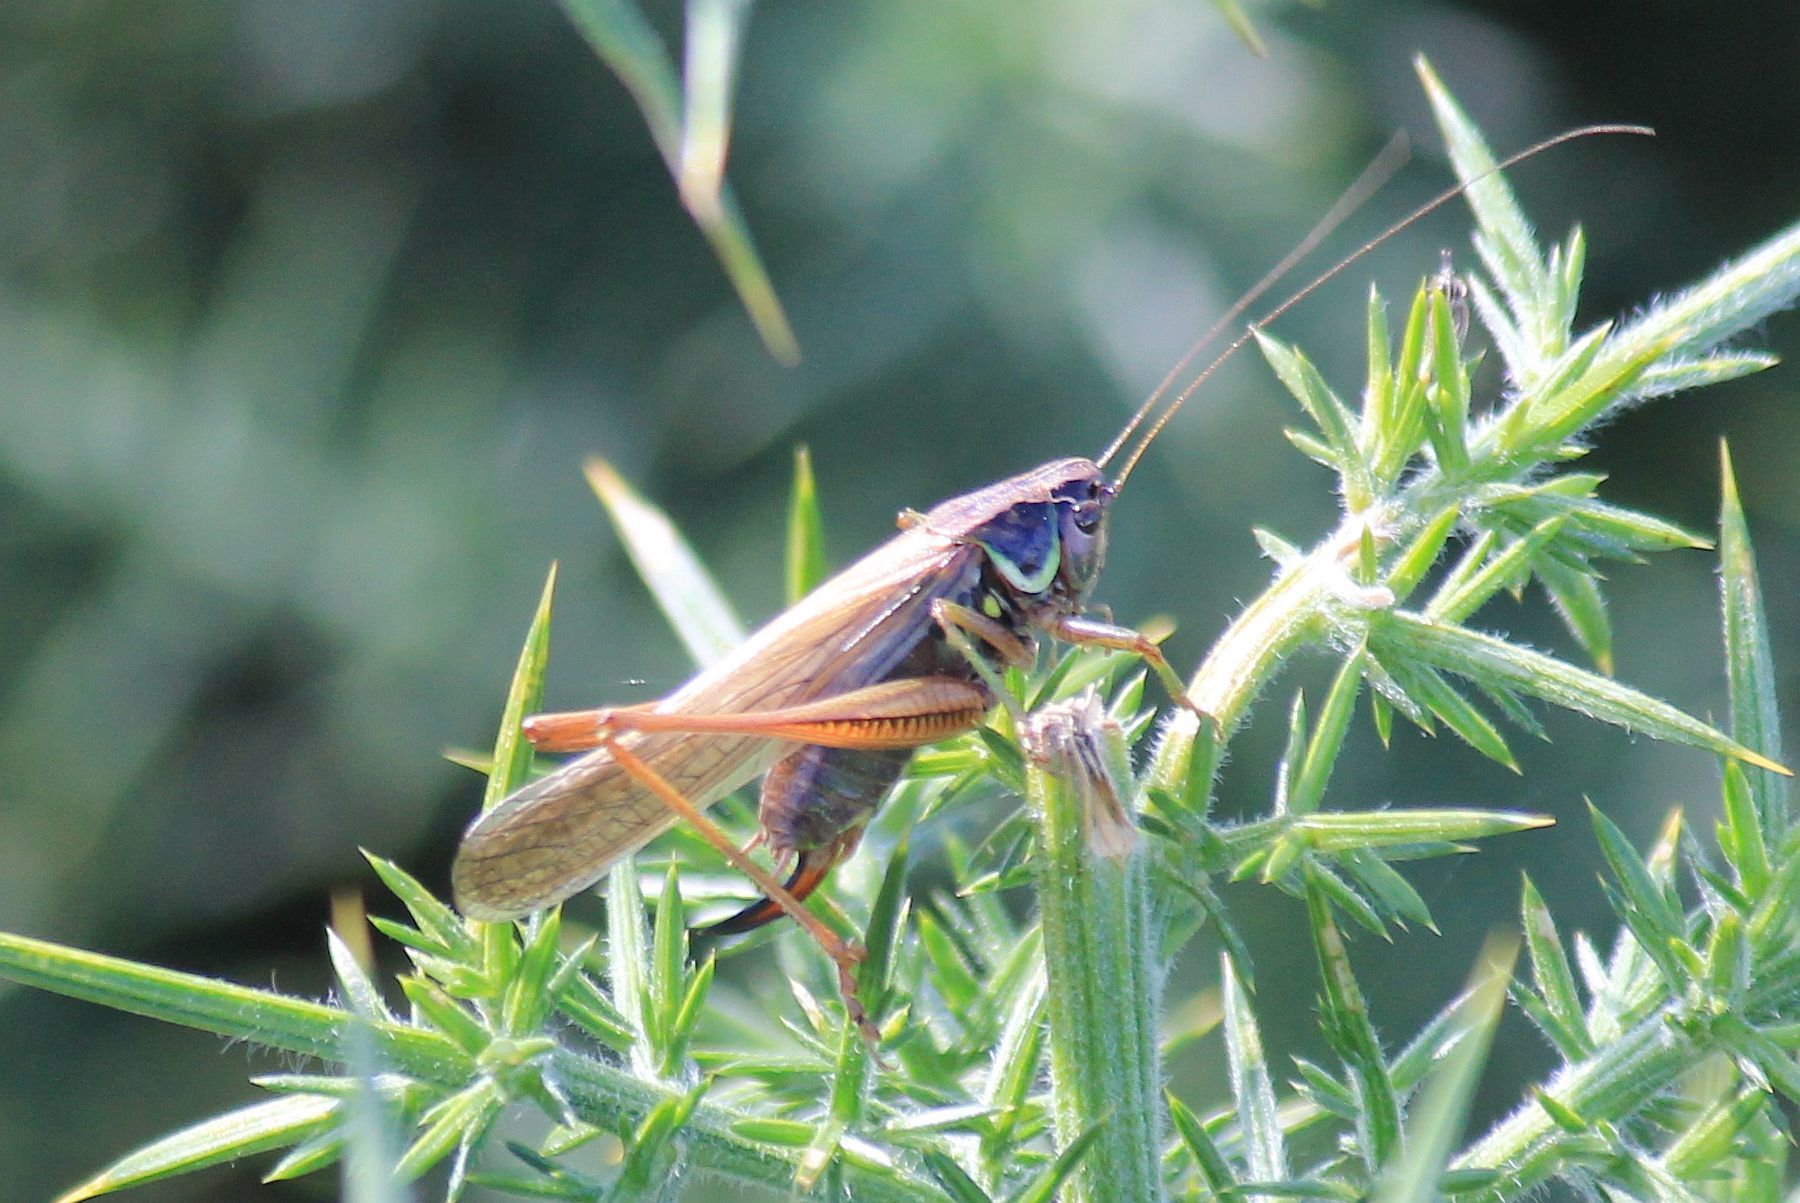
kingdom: Animalia
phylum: Arthropoda
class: Insecta
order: Orthoptera
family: Tettigoniidae
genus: Roeseliana
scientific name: Roeseliana roeselii
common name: Roesel's bush cricket
